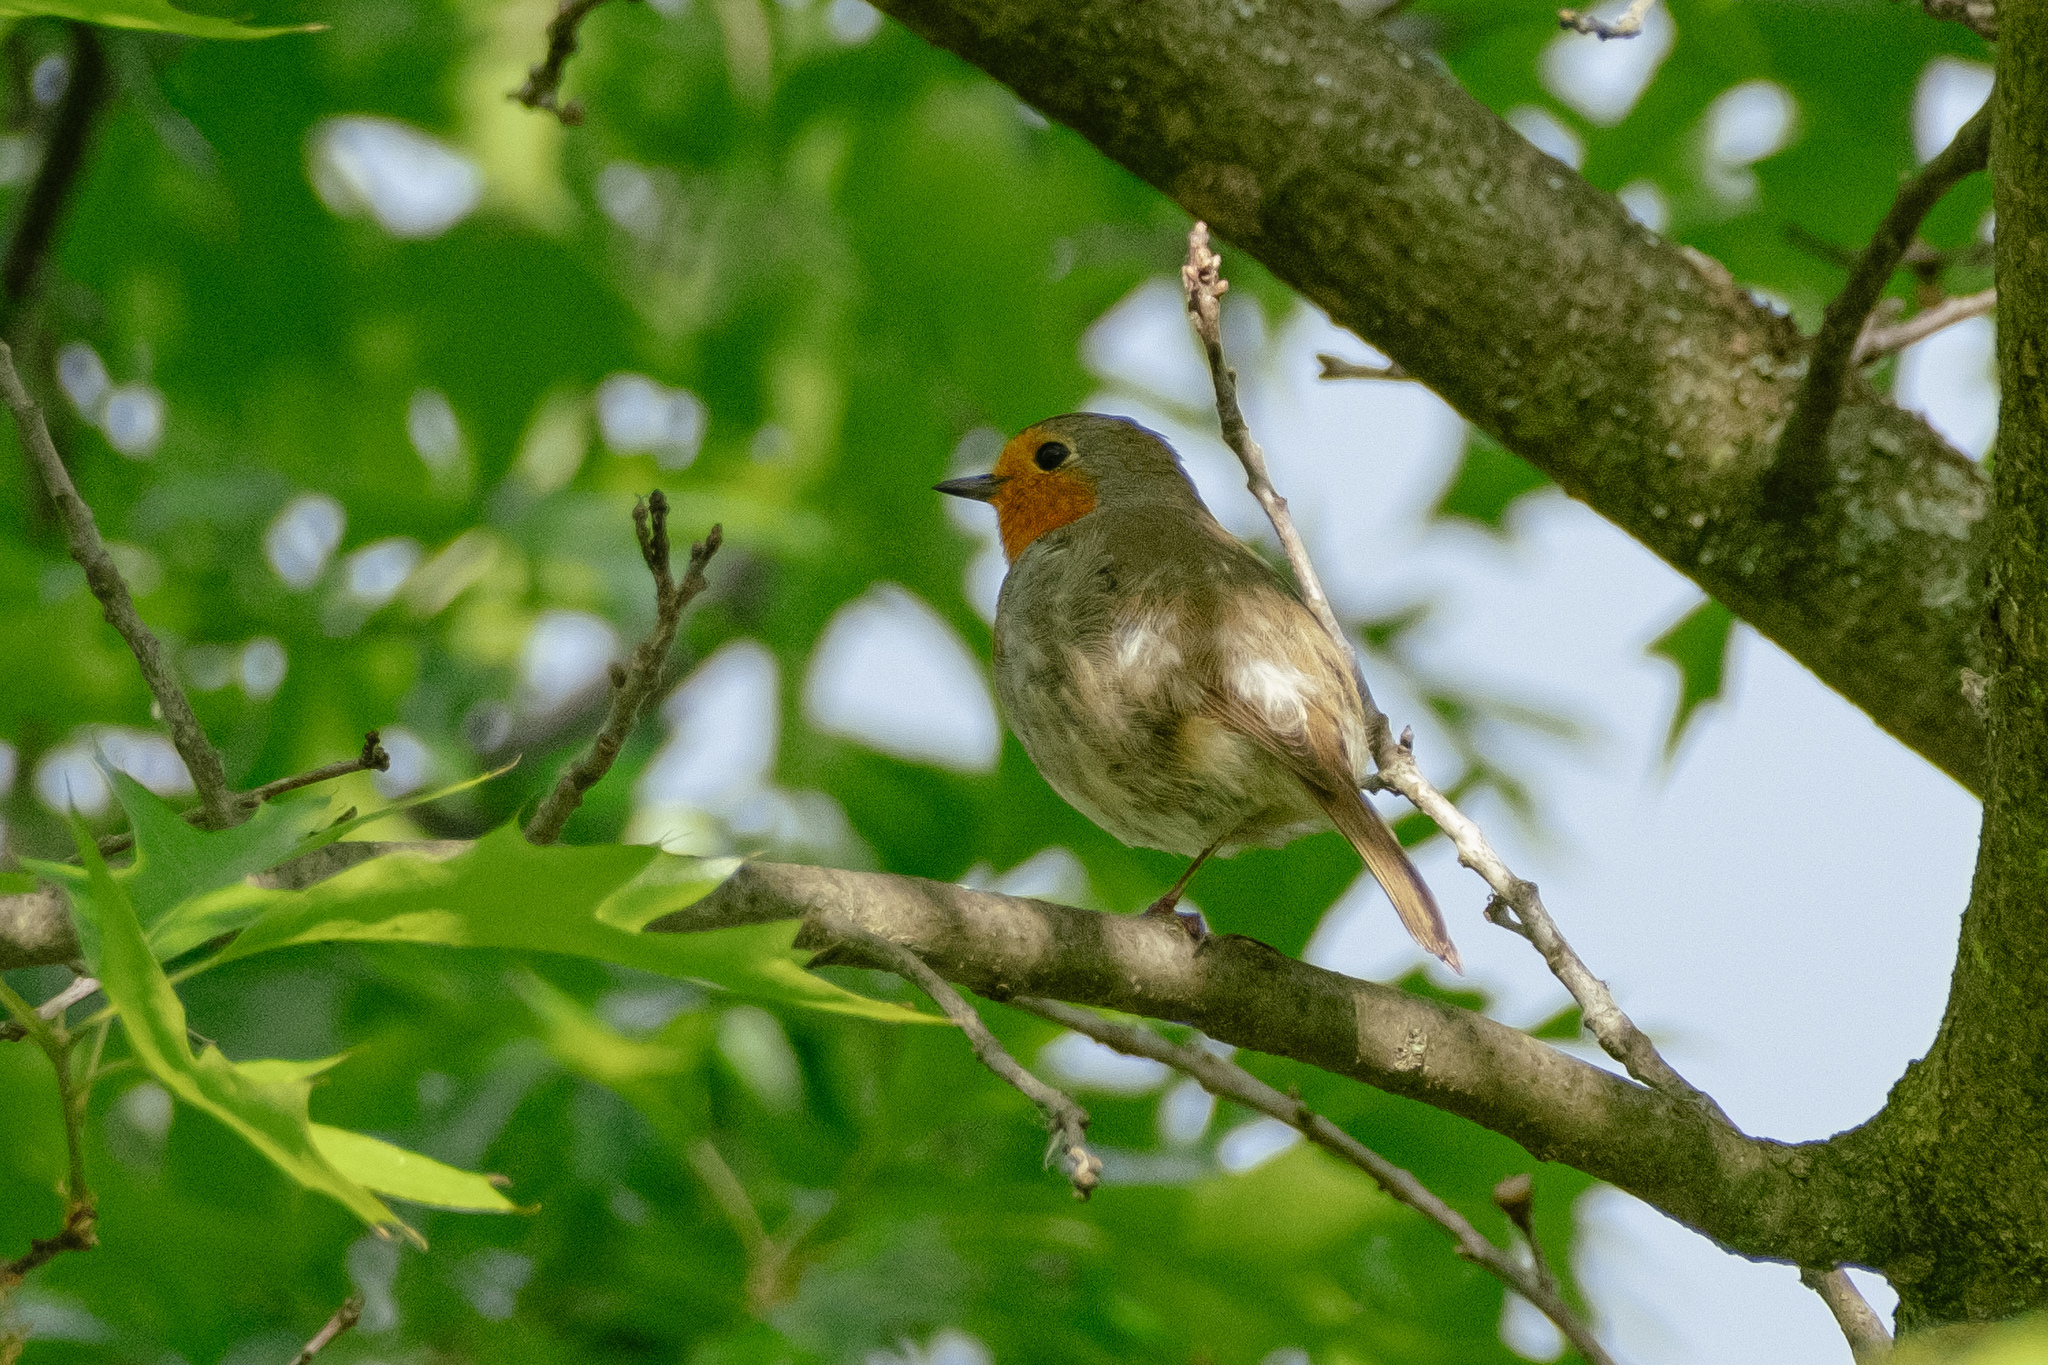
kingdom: Animalia
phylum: Chordata
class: Aves
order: Passeriformes
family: Muscicapidae
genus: Erithacus
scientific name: Erithacus rubecula
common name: European robin
